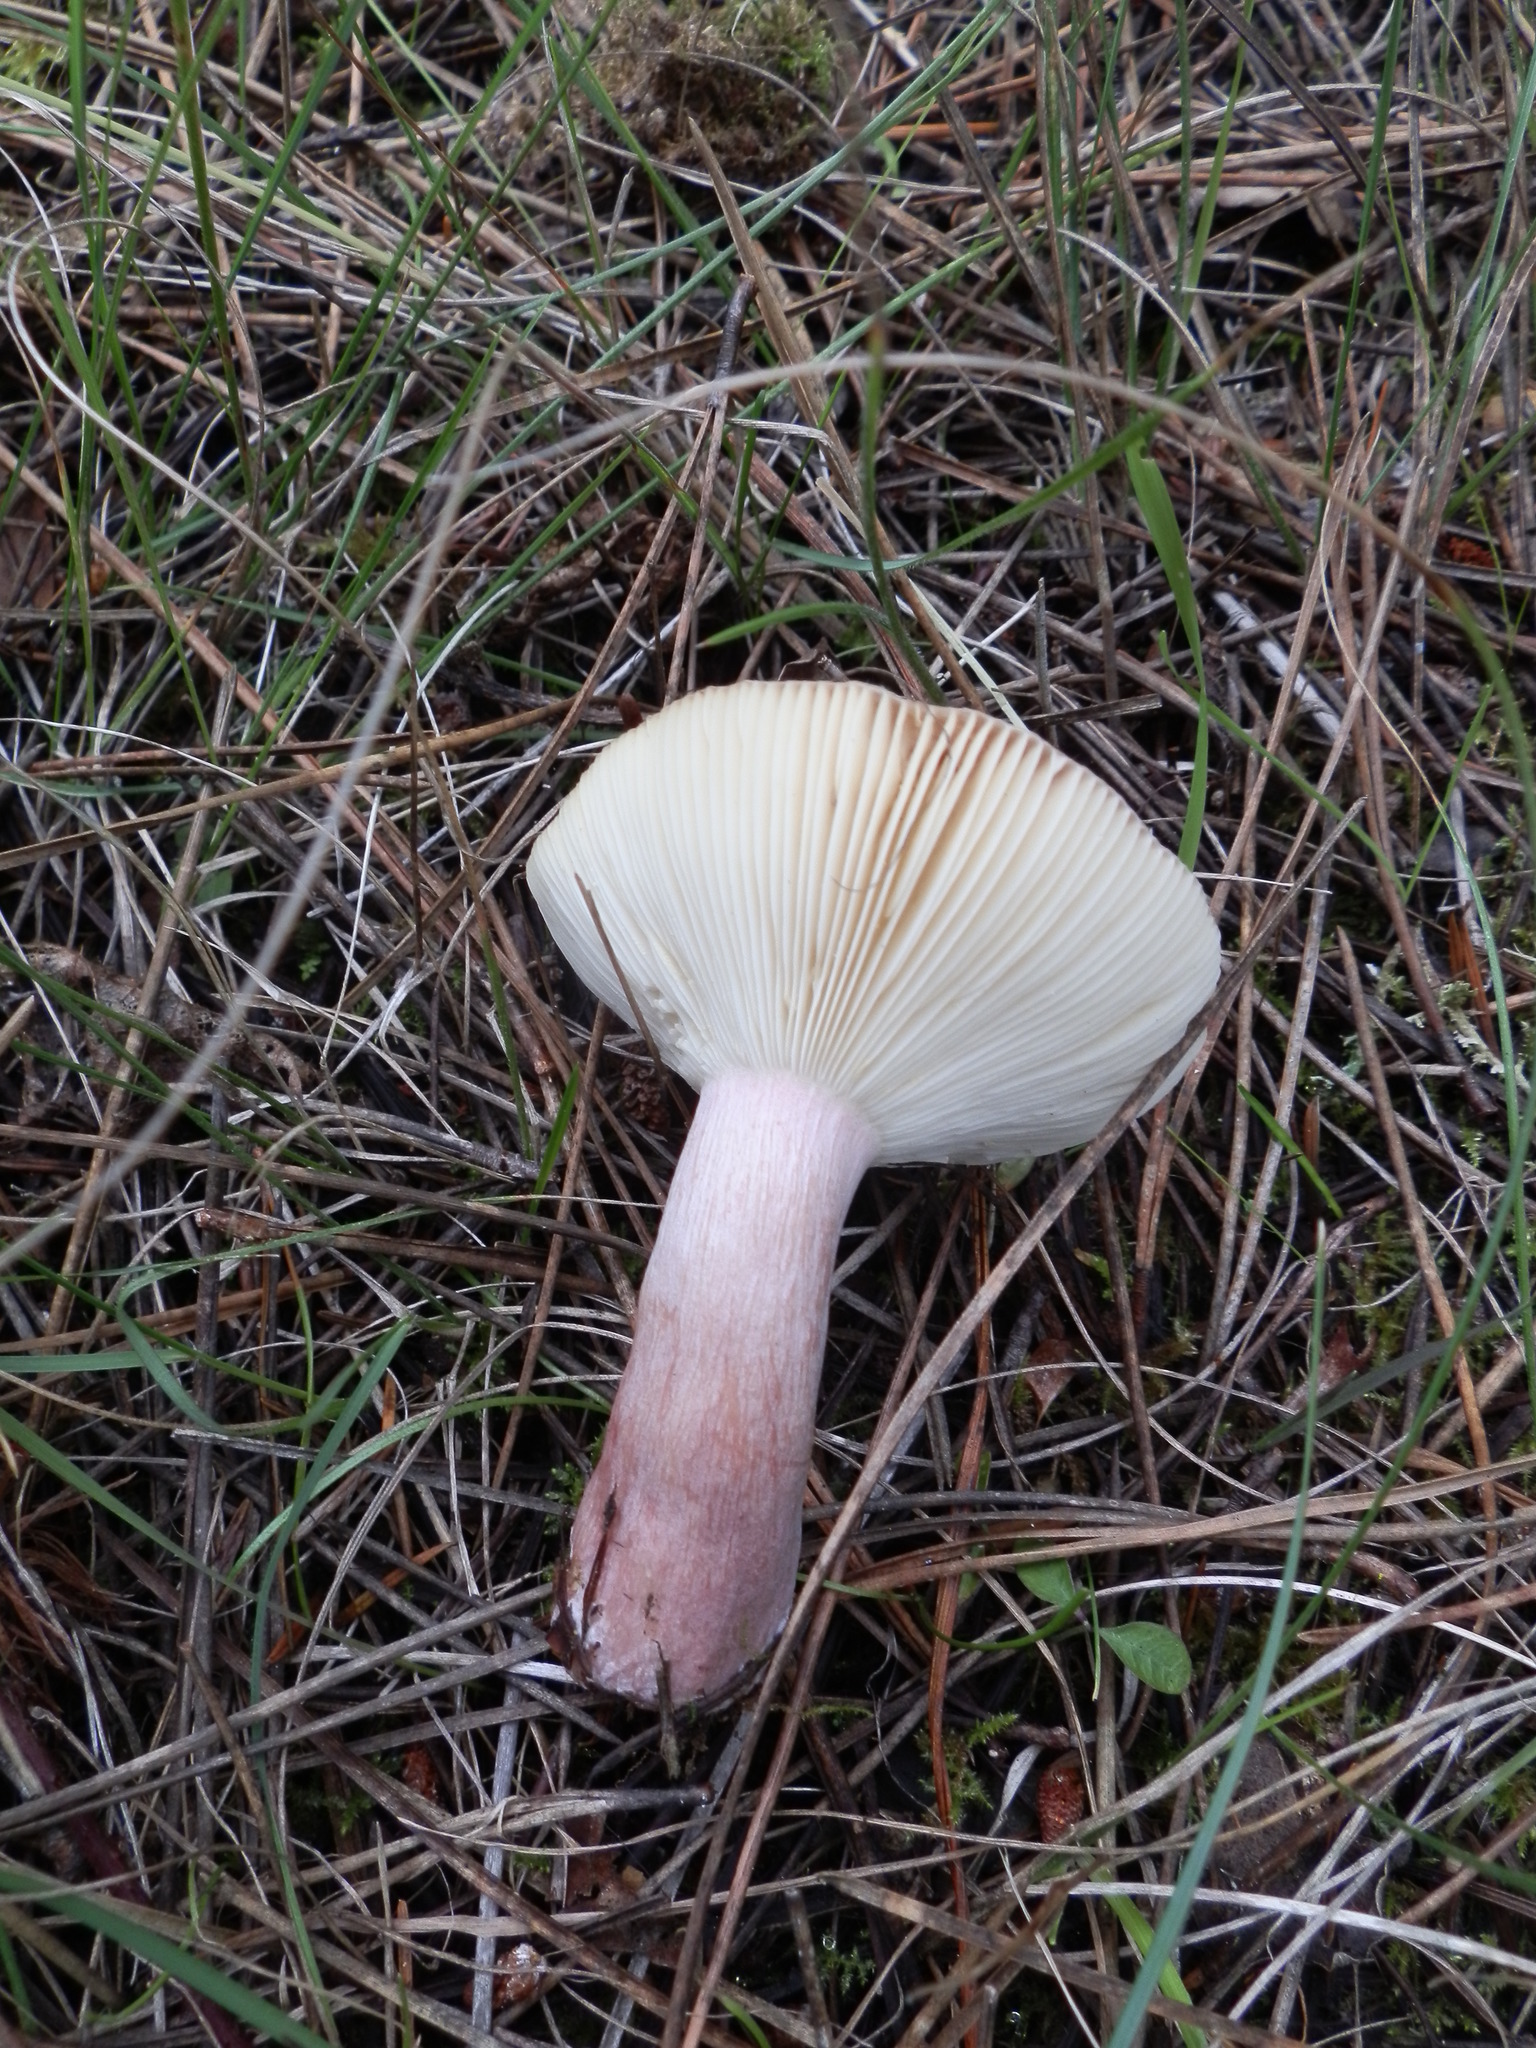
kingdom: Fungi
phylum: Basidiomycota
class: Agaricomycetes
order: Russulales
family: Russulaceae
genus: Russula
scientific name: Russula queletii
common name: Fruity brittlegill
